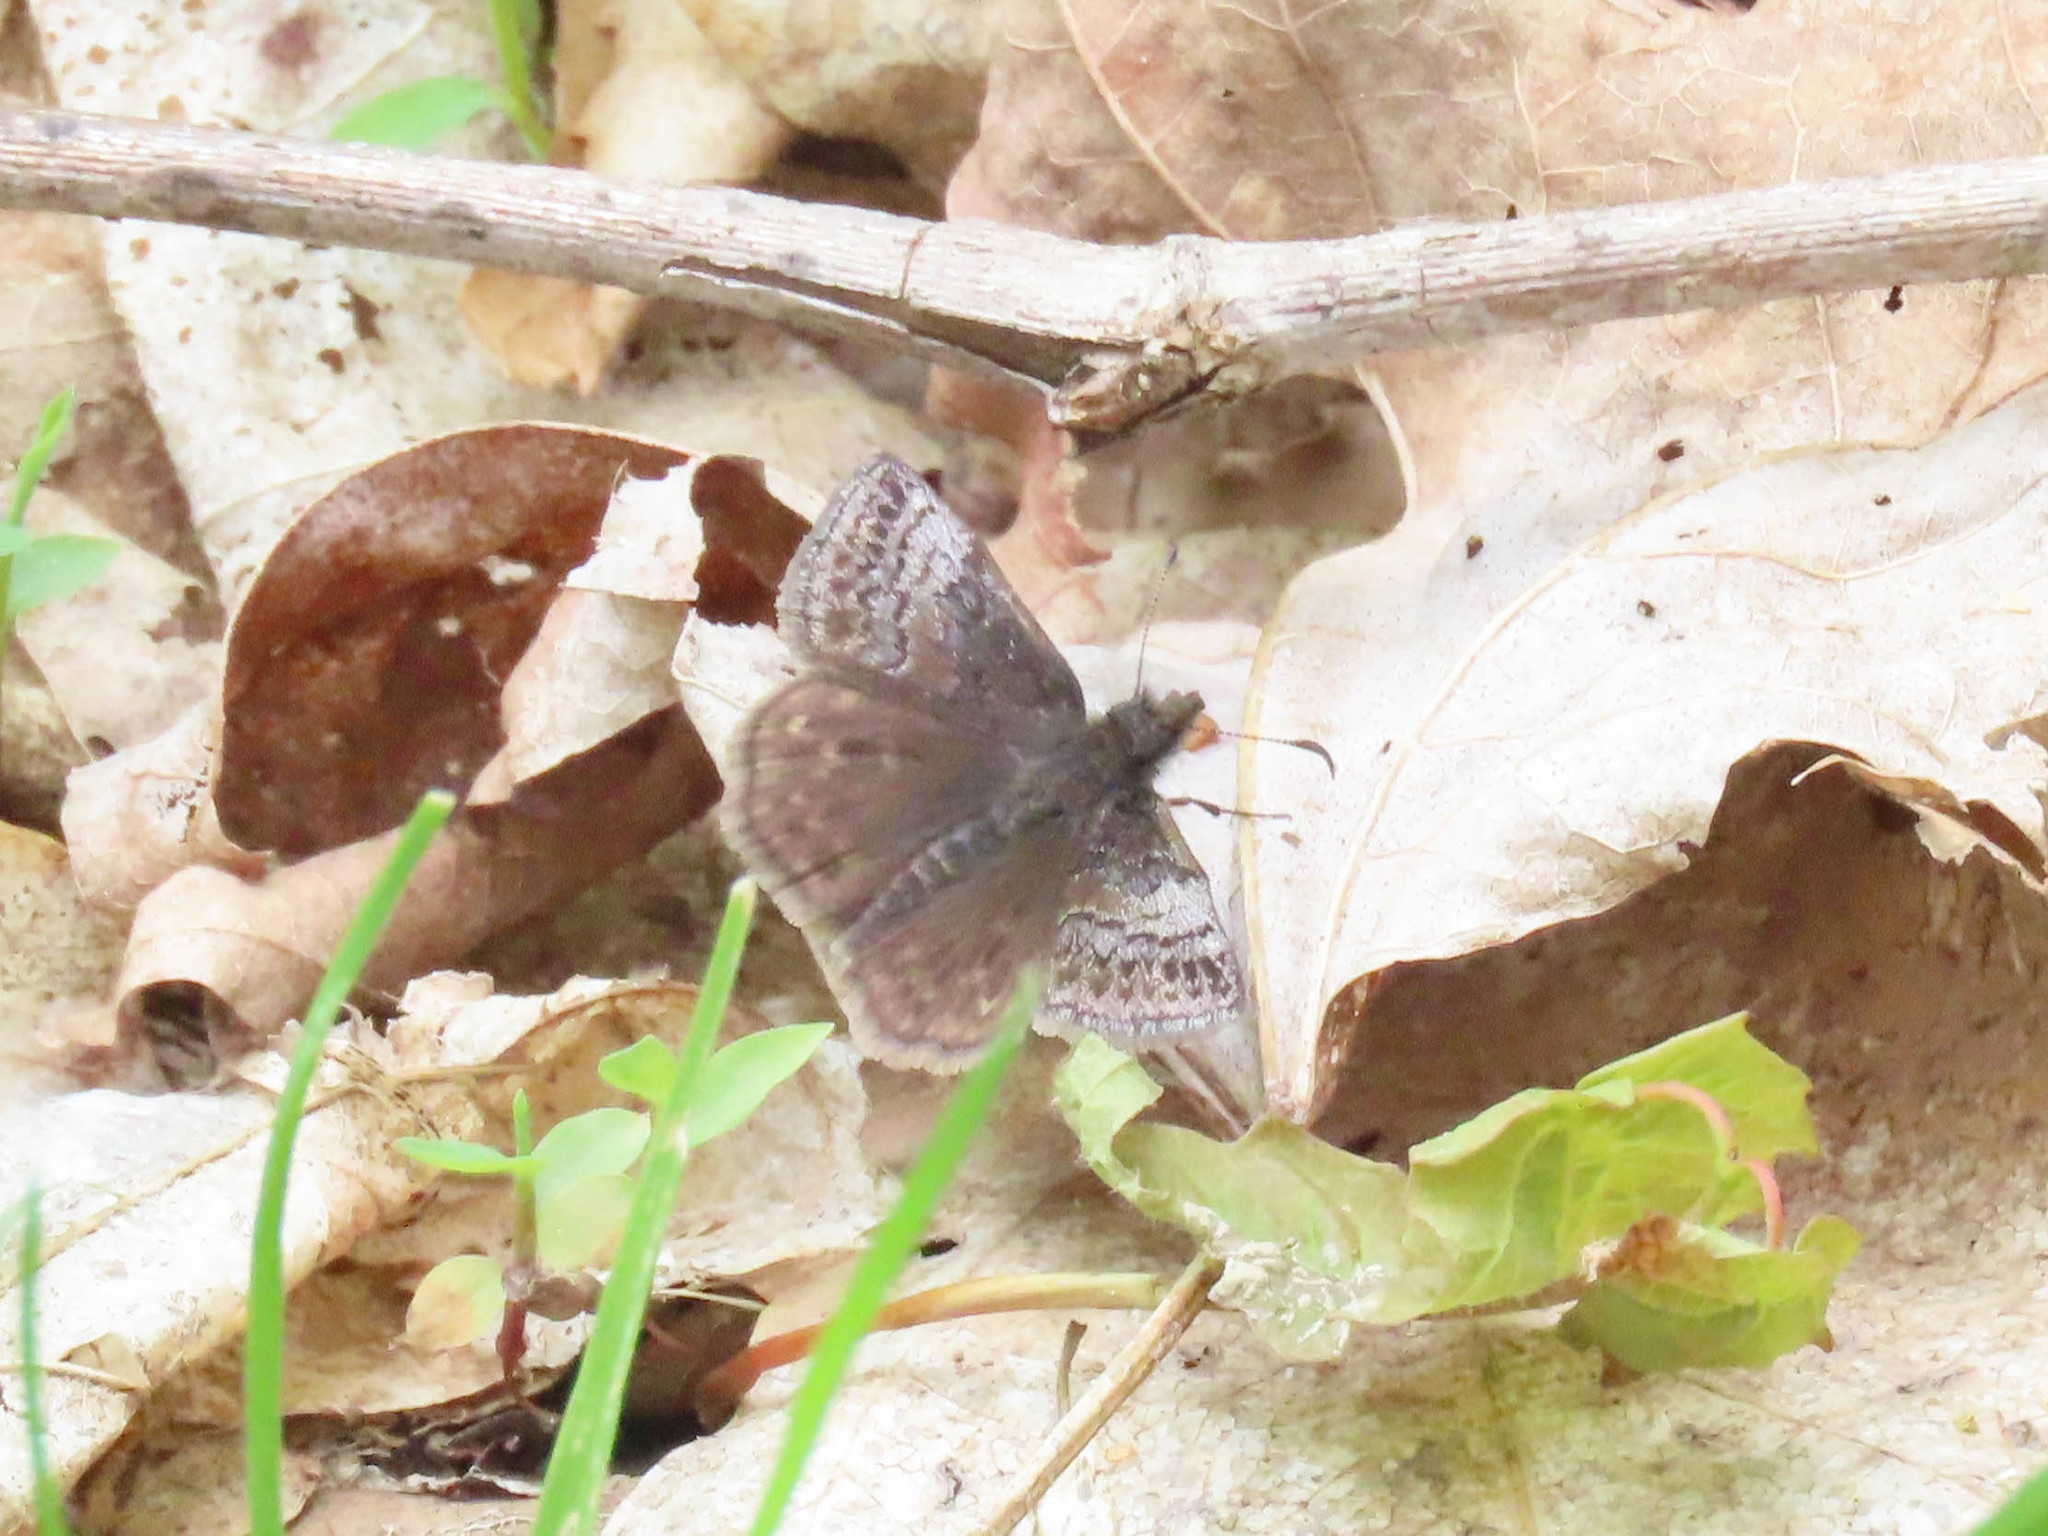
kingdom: Animalia
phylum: Arthropoda
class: Insecta
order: Lepidoptera
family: Hesperiidae
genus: Erynnis
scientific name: Erynnis icelus
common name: Dreamy duskywing
